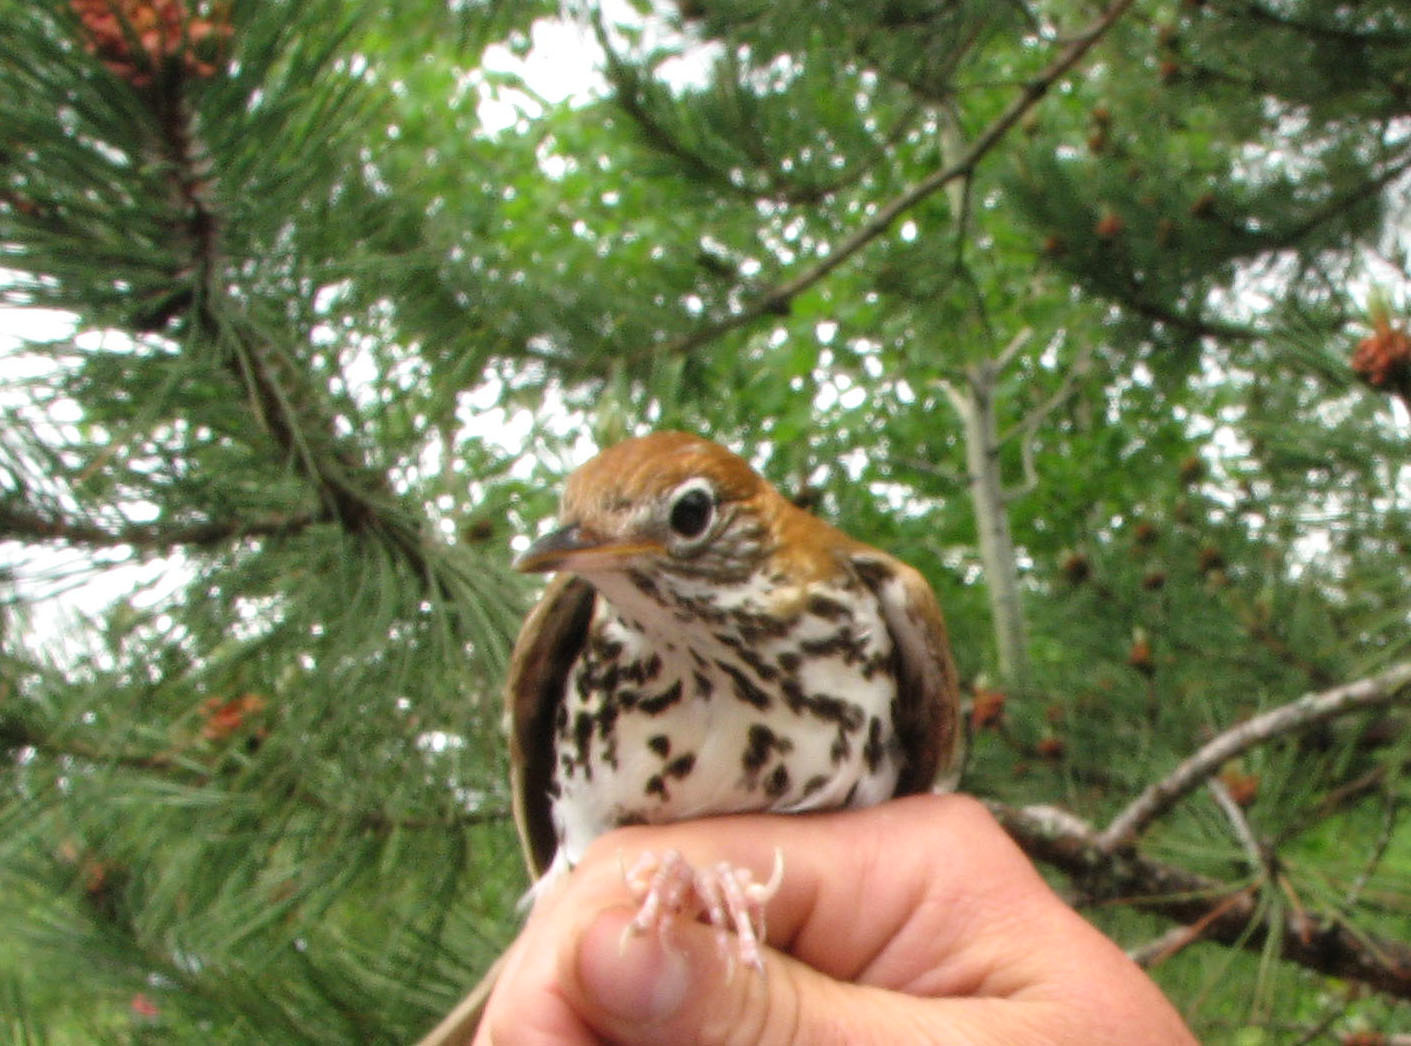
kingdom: Animalia
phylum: Chordata
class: Aves
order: Passeriformes
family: Turdidae
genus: Hylocichla
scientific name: Hylocichla mustelina
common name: Wood thrush
